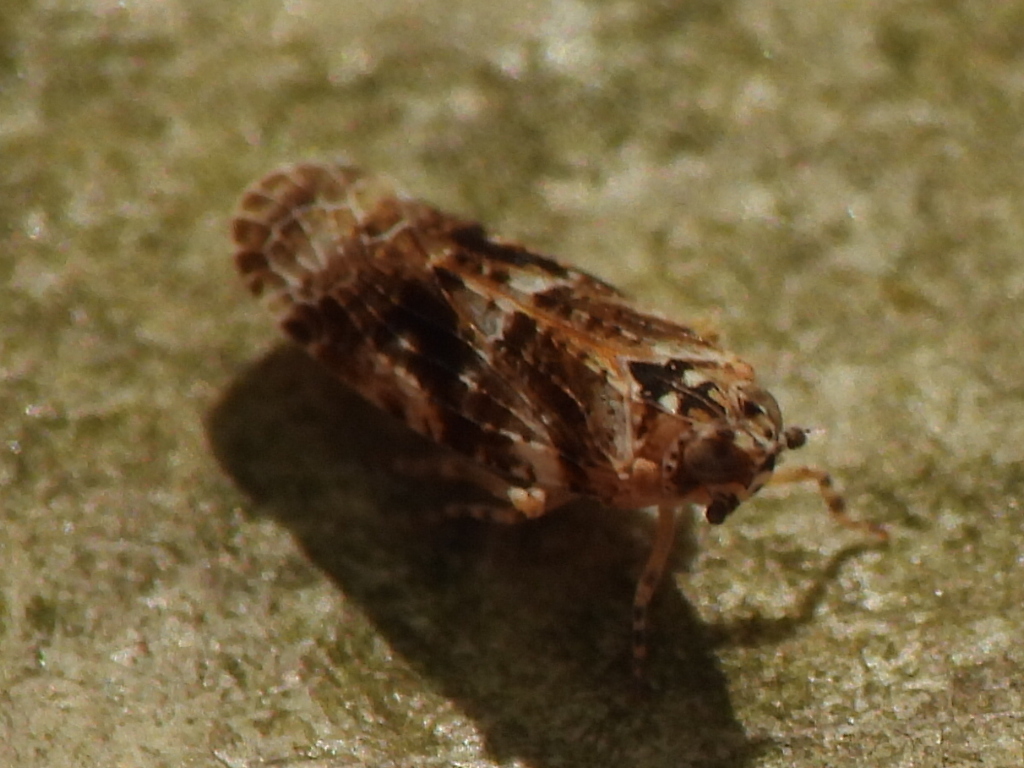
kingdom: Animalia
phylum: Arthropoda
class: Insecta
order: Hemiptera
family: Achilidae
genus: Catonia
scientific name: Catonia cinctifrons
